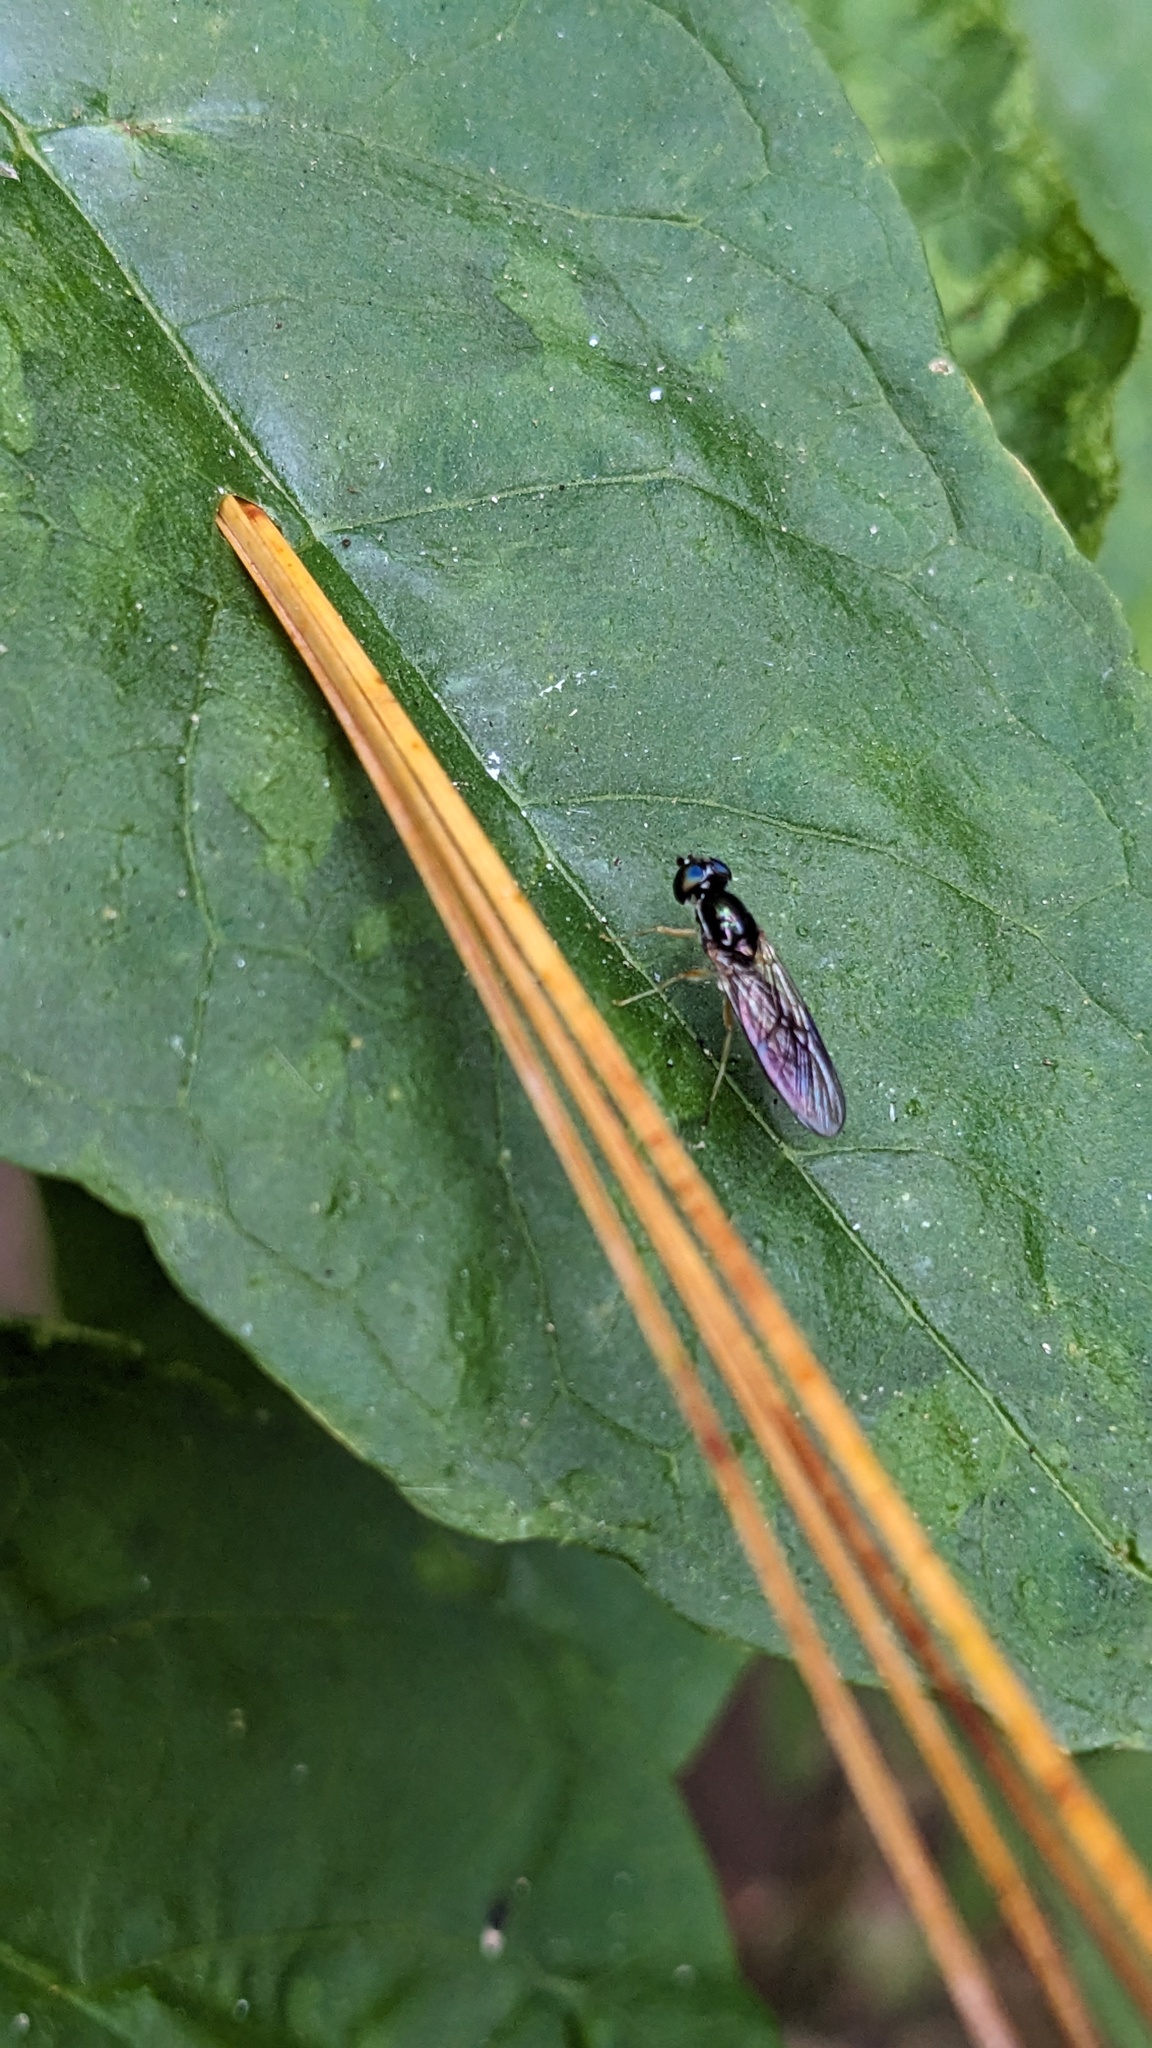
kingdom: Animalia
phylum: Arthropoda
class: Insecta
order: Diptera
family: Stratiomyidae
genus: Sargus
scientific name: Sargus decorus
